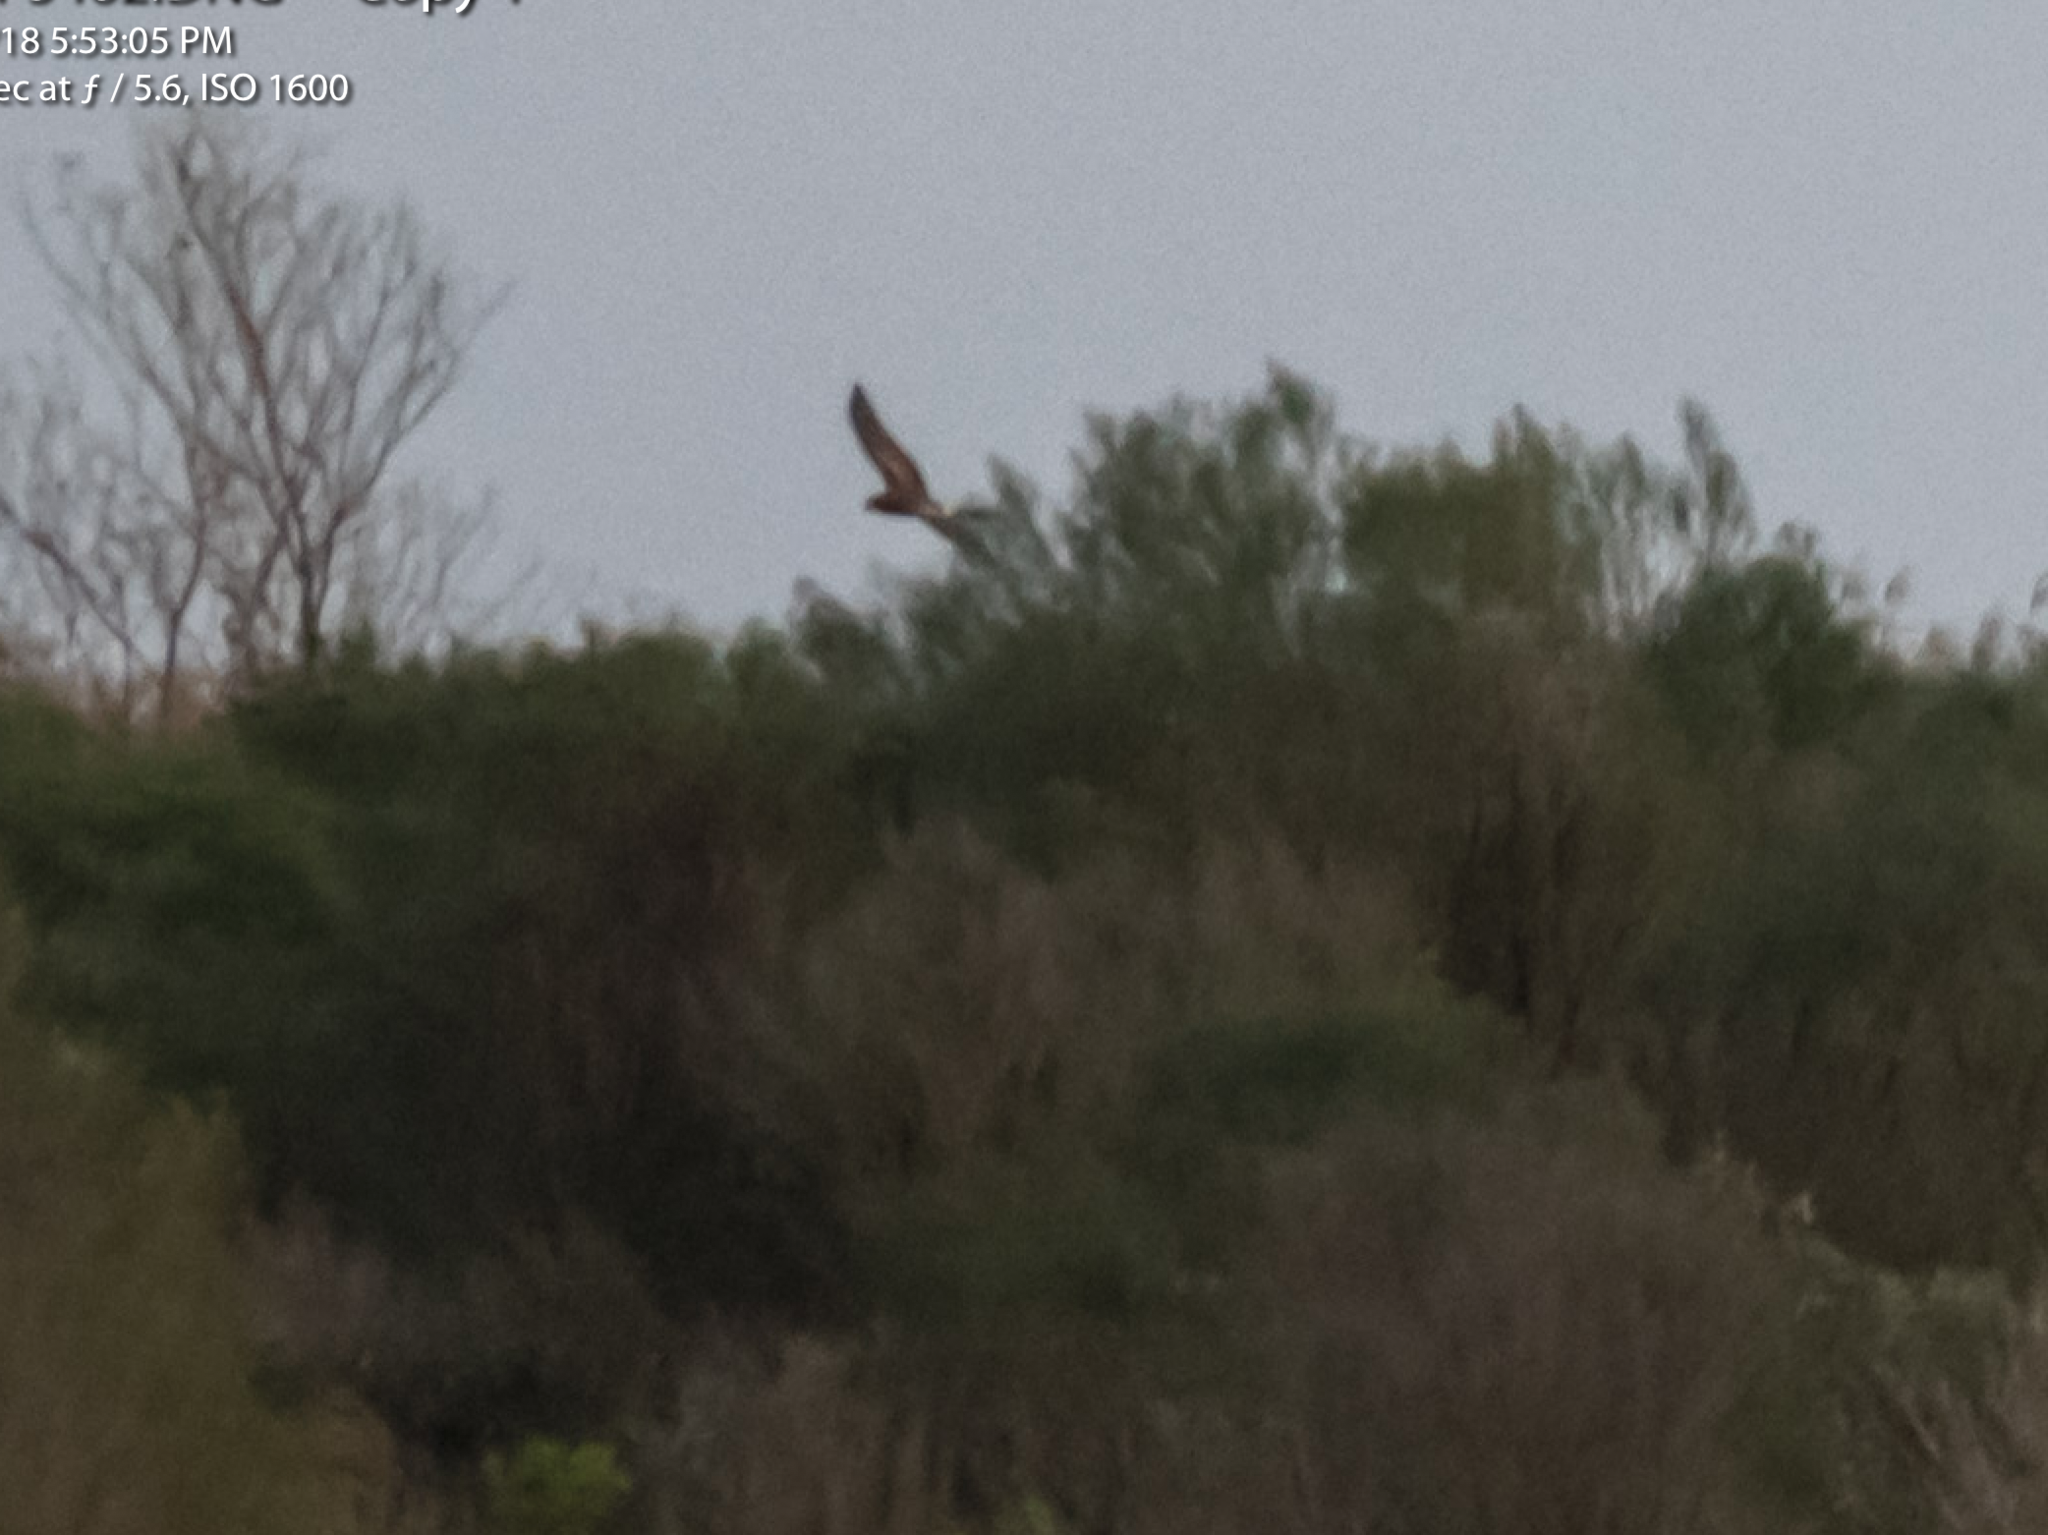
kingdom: Animalia
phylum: Chordata
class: Aves
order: Accipitriformes
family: Accipitridae
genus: Circus
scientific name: Circus cyaneus
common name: Hen harrier
